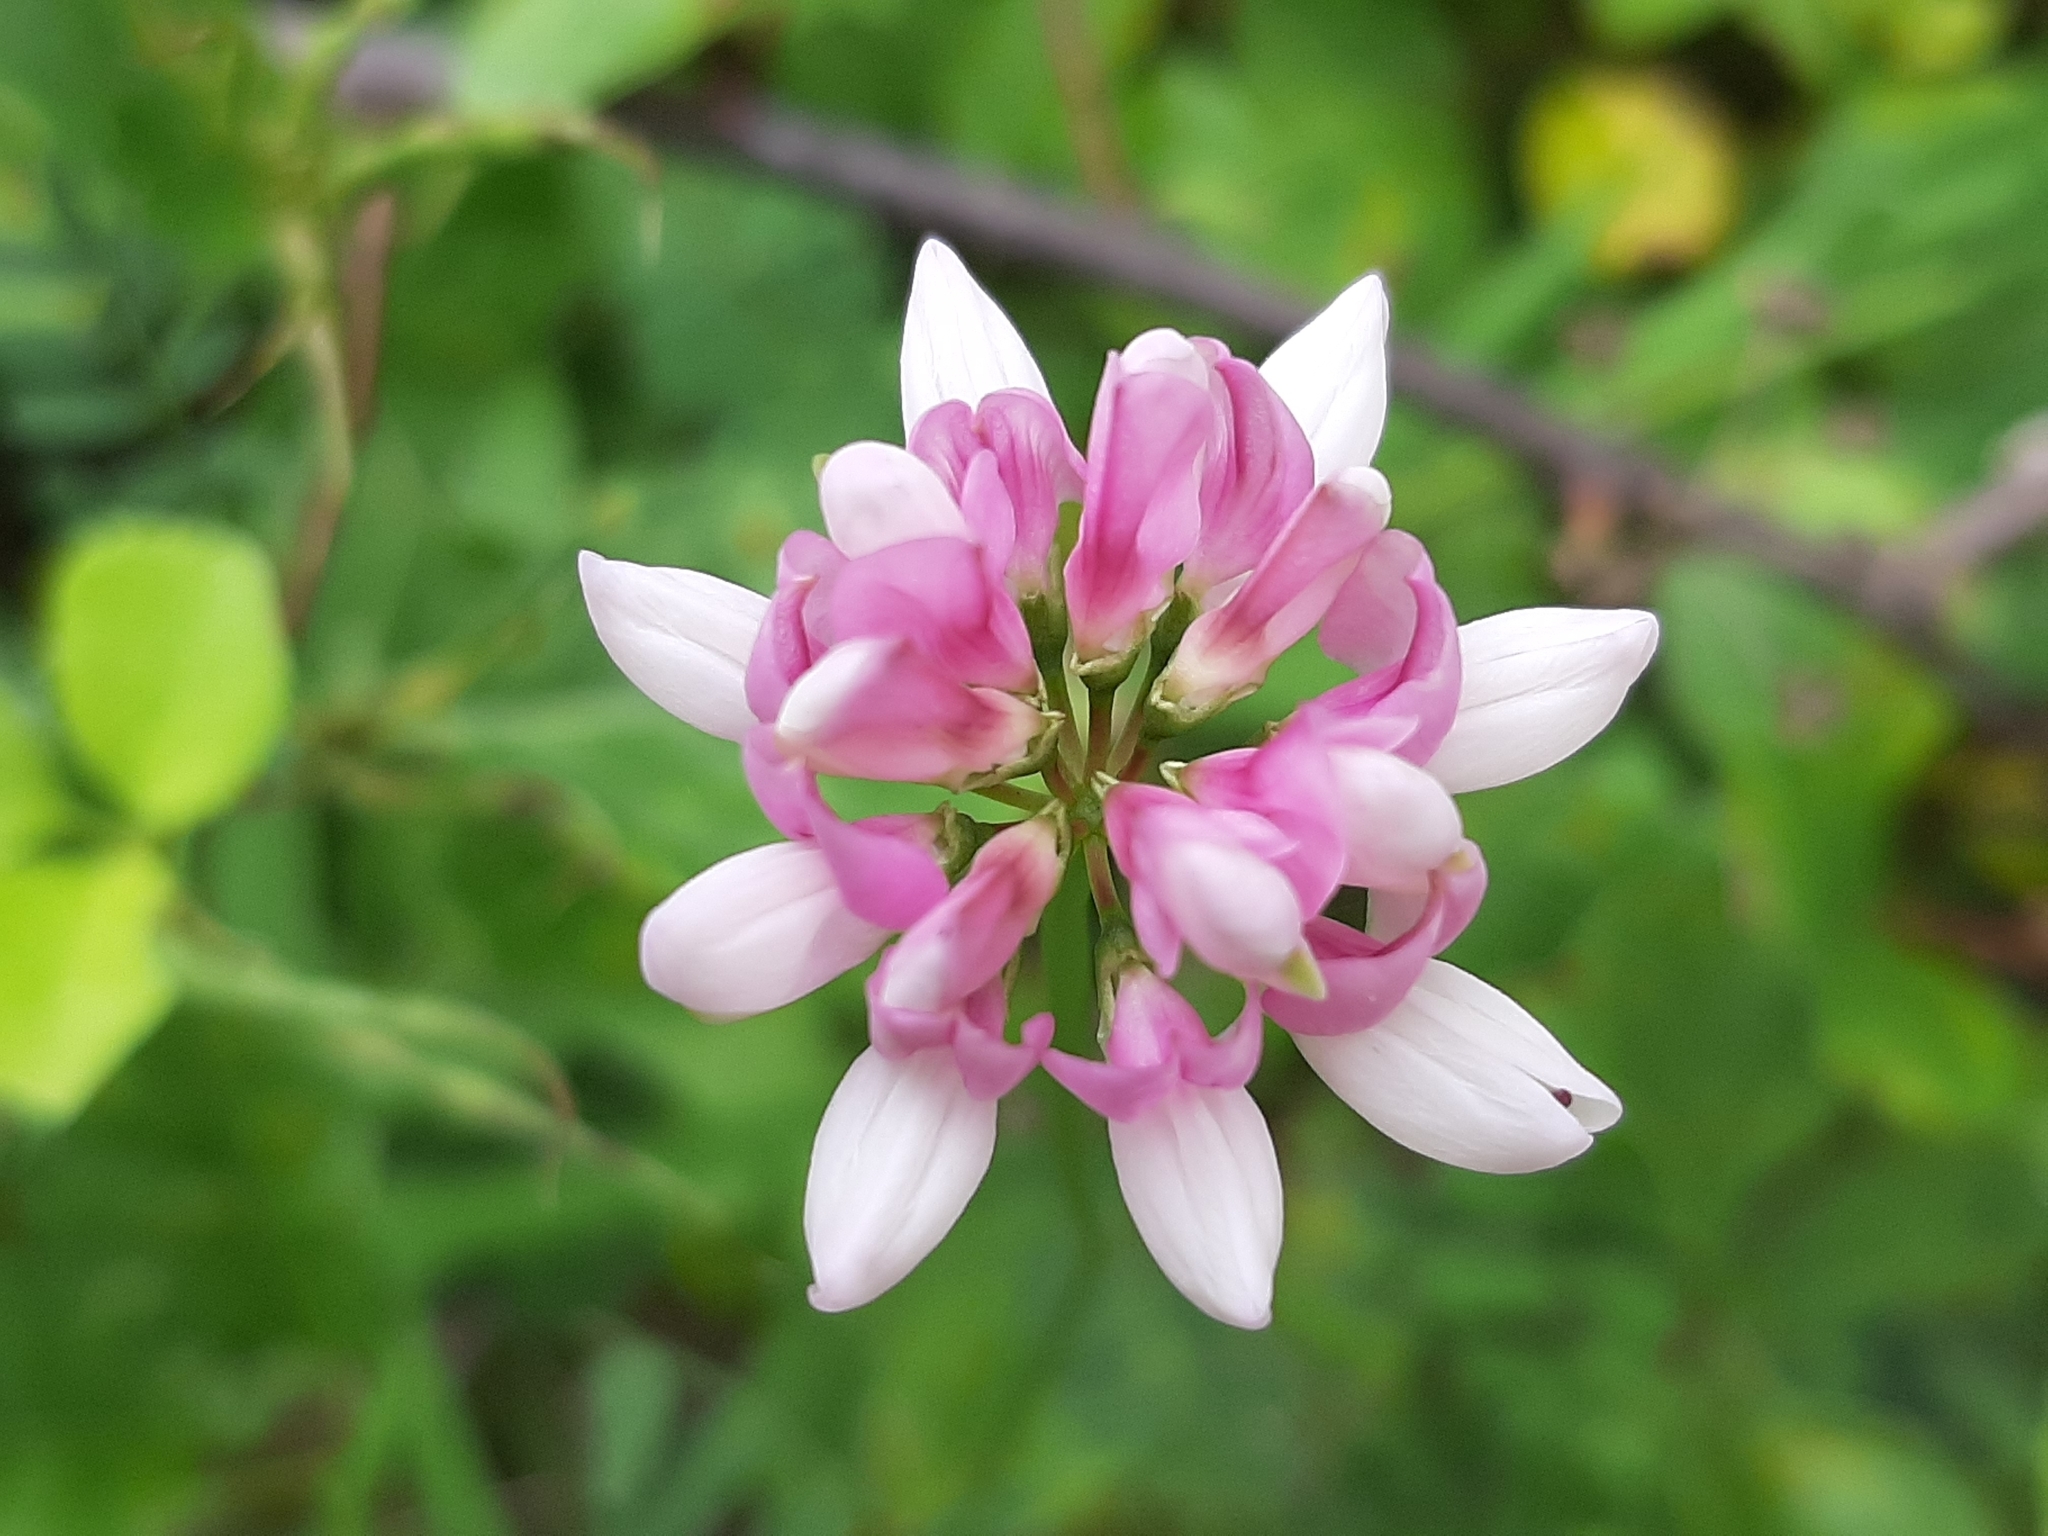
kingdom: Plantae
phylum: Tracheophyta
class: Magnoliopsida
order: Fabales
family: Fabaceae
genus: Coronilla
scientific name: Coronilla varia
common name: Crownvetch
